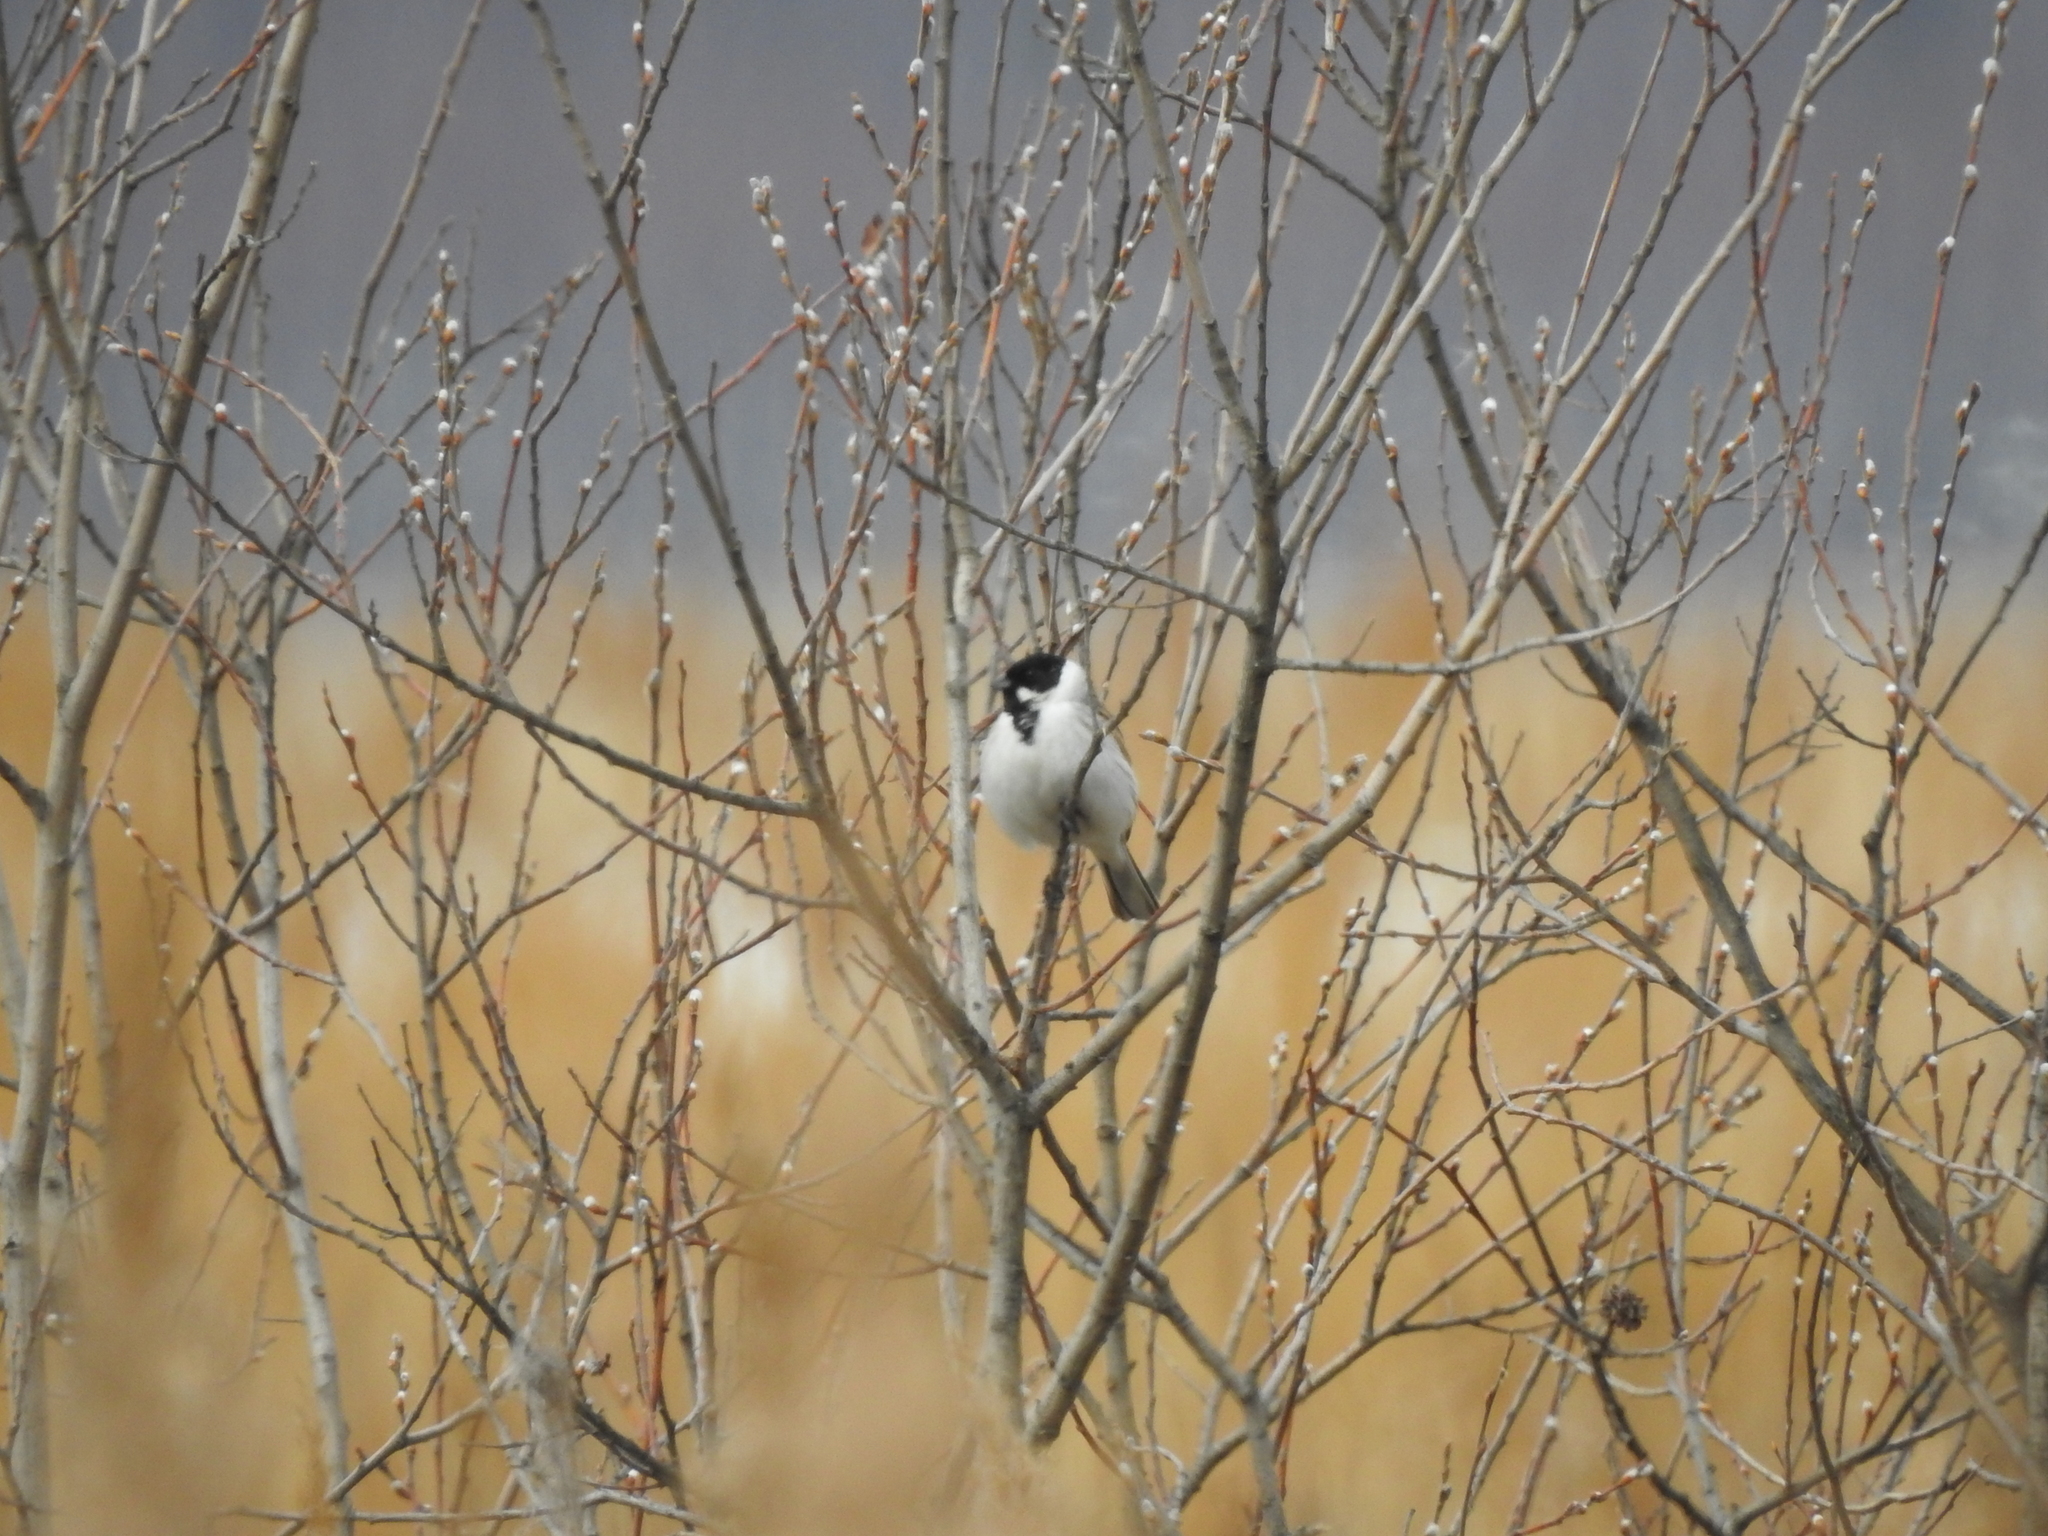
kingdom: Animalia
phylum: Chordata
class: Aves
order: Passeriformes
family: Emberizidae
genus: Emberiza
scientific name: Emberiza schoeniclus
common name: Reed bunting
